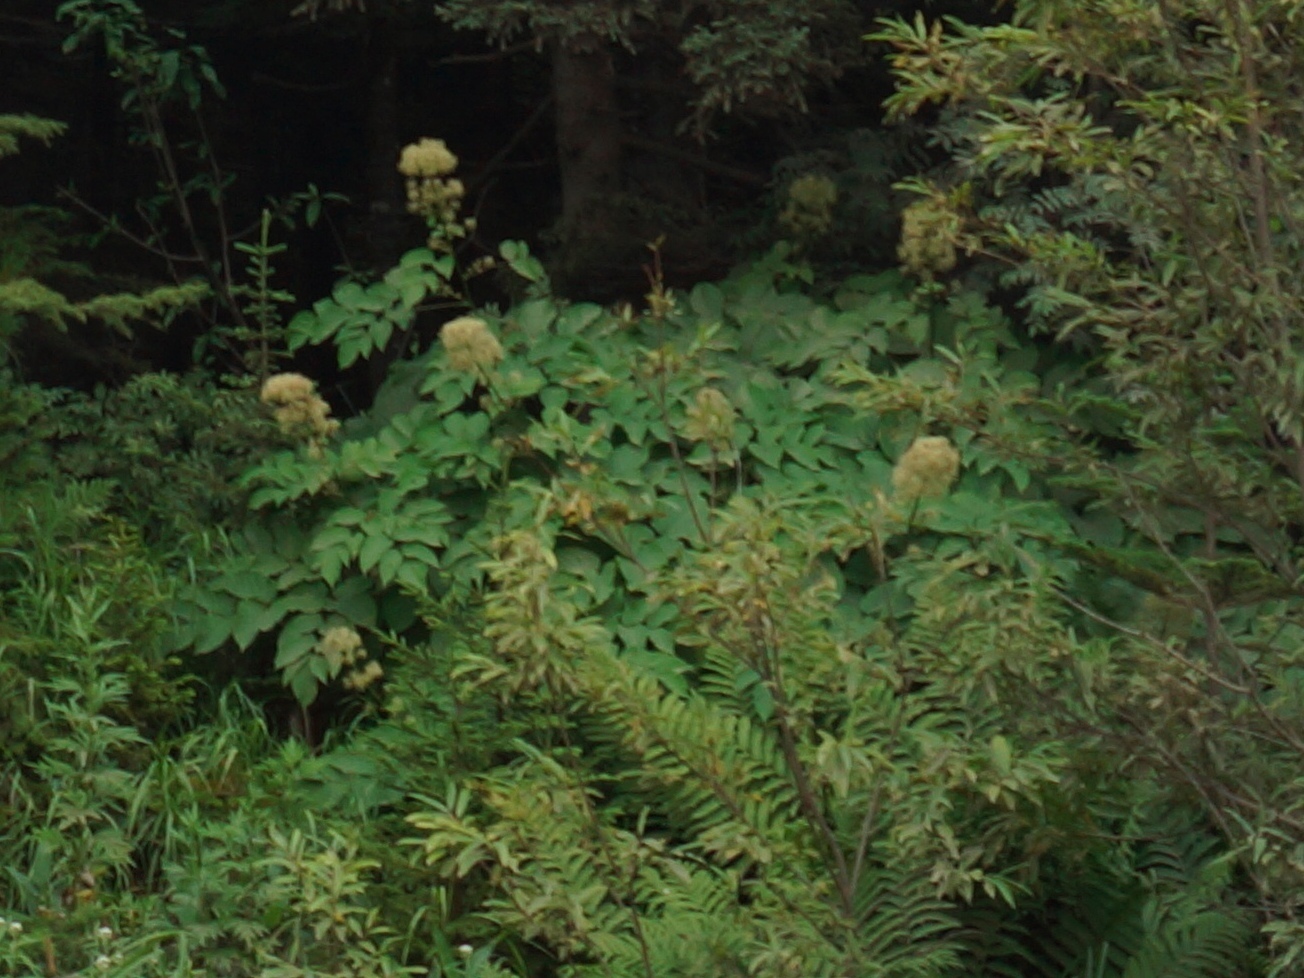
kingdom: Plantae
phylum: Tracheophyta
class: Magnoliopsida
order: Apiales
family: Araliaceae
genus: Aralia
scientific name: Aralia cordata
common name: Udo
